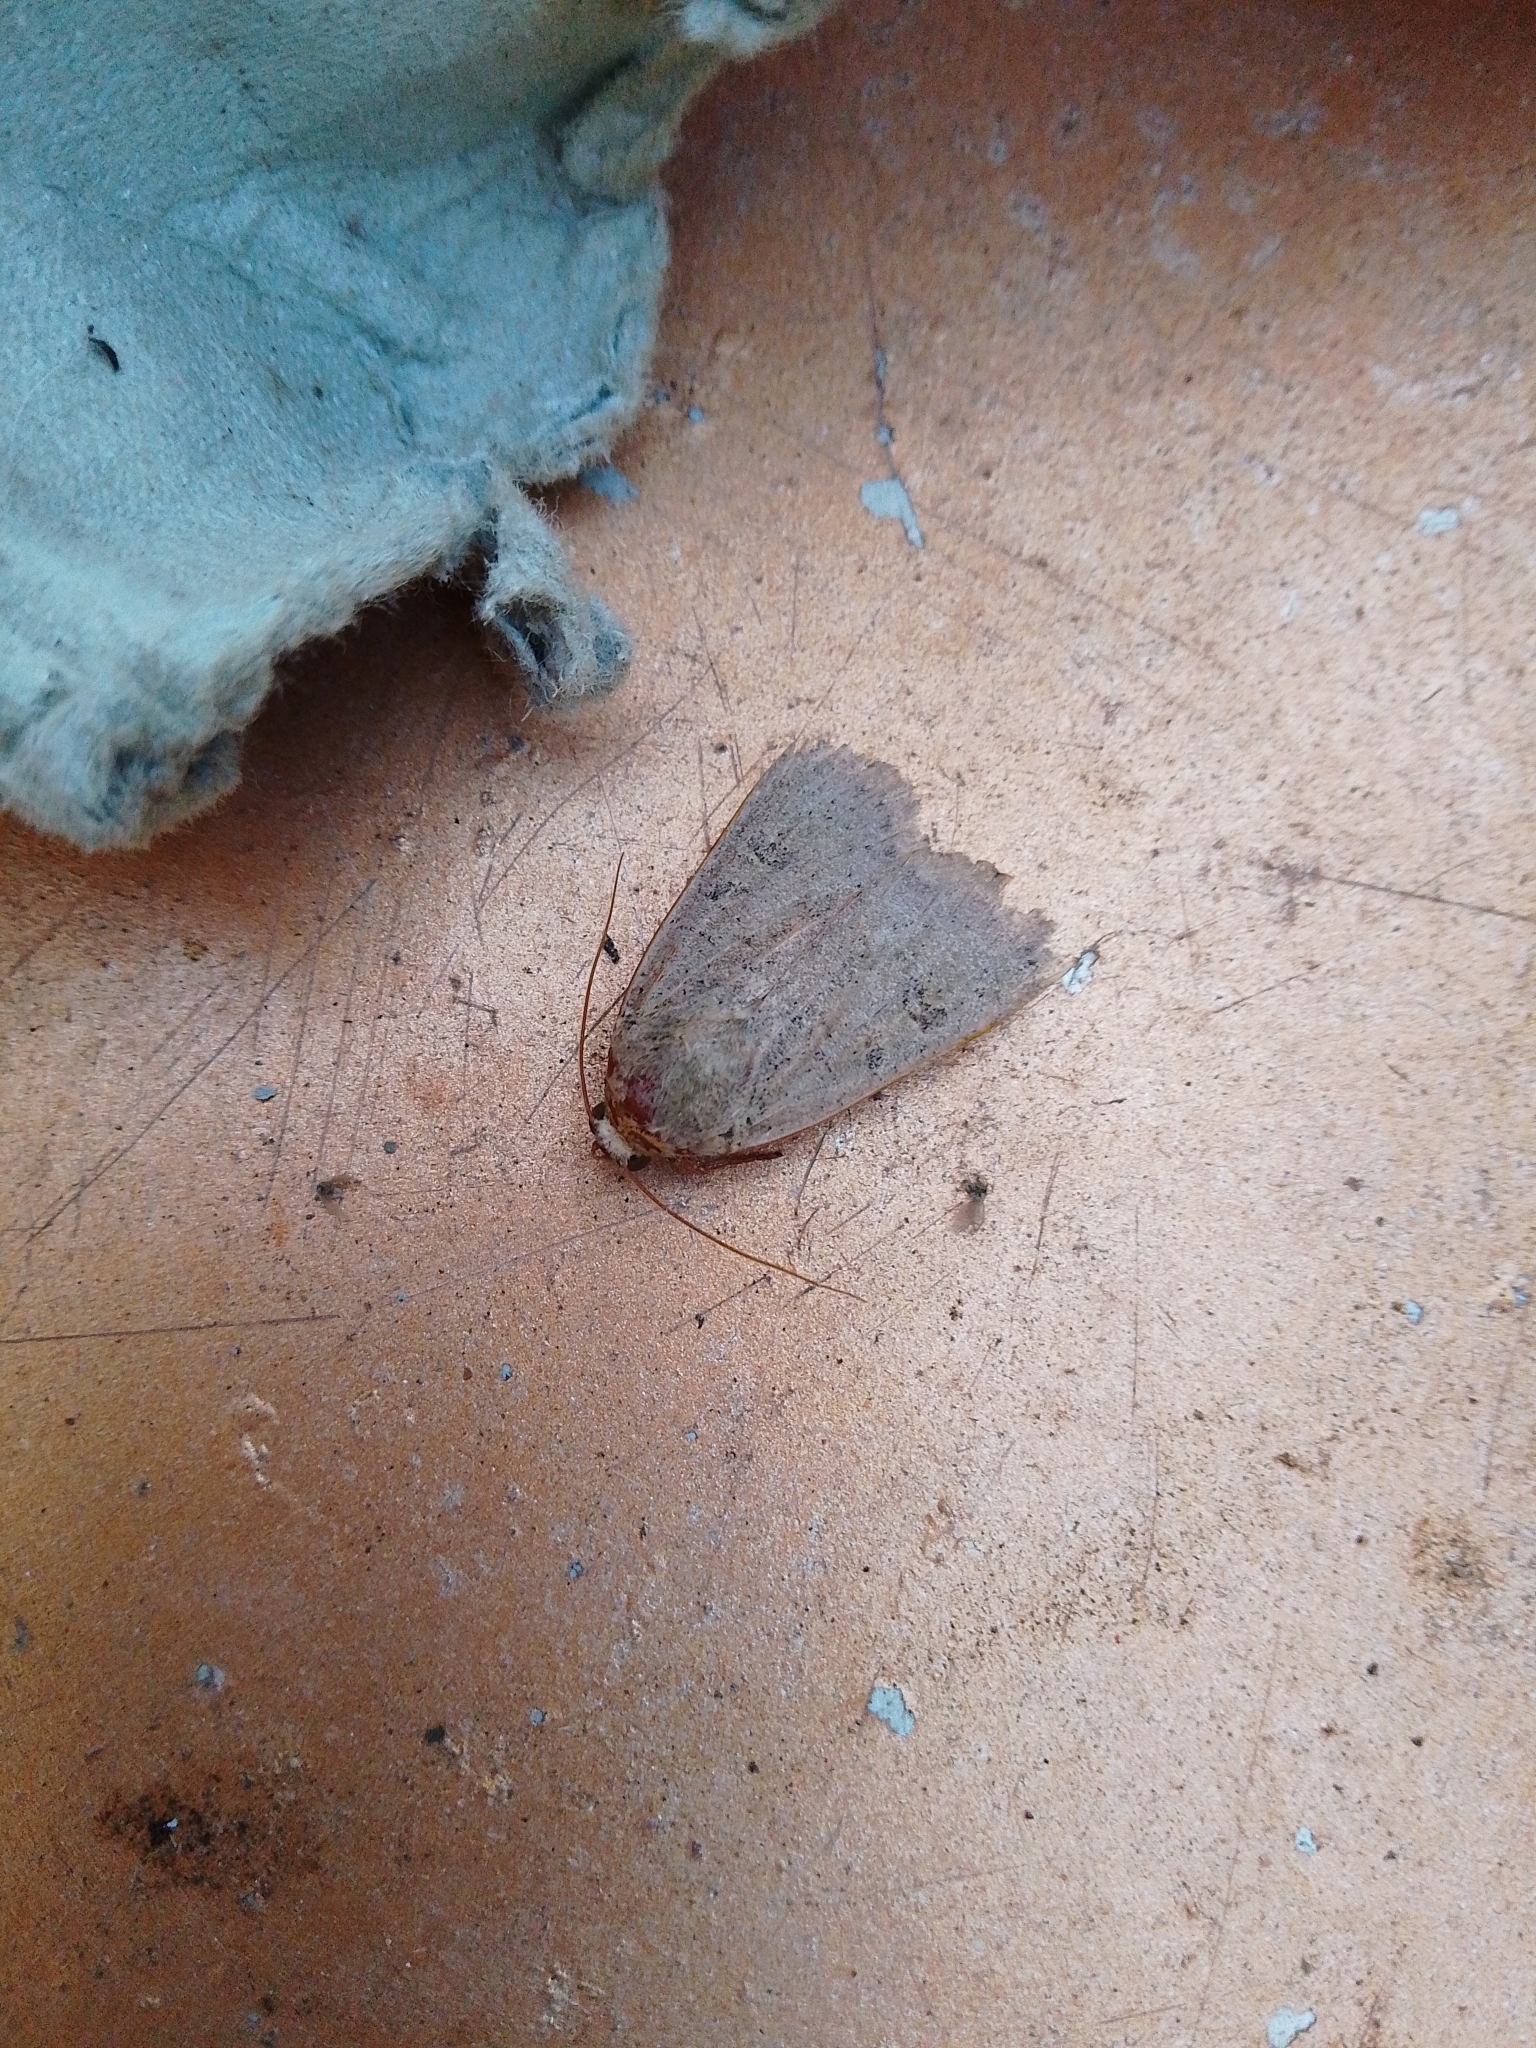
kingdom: Animalia
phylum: Arthropoda
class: Insecta
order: Lepidoptera
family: Noctuidae
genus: Noctua
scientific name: Noctua comes
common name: Lesser yellow underwing
